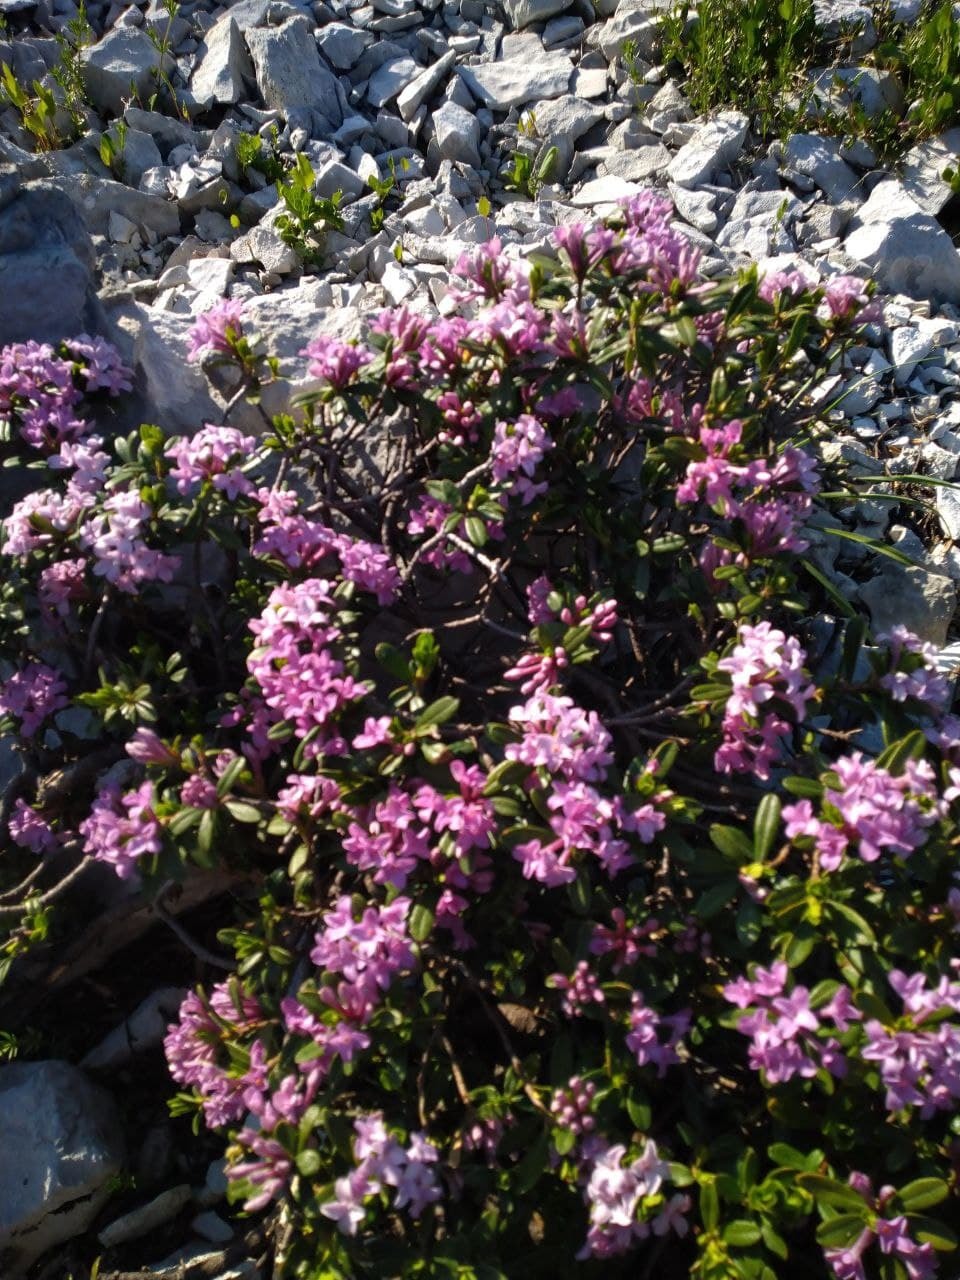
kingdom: Plantae
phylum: Tracheophyta
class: Magnoliopsida
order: Ericales
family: Ericaceae
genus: Rhododendron
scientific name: Rhododendron ponticum
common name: Rhododendron
